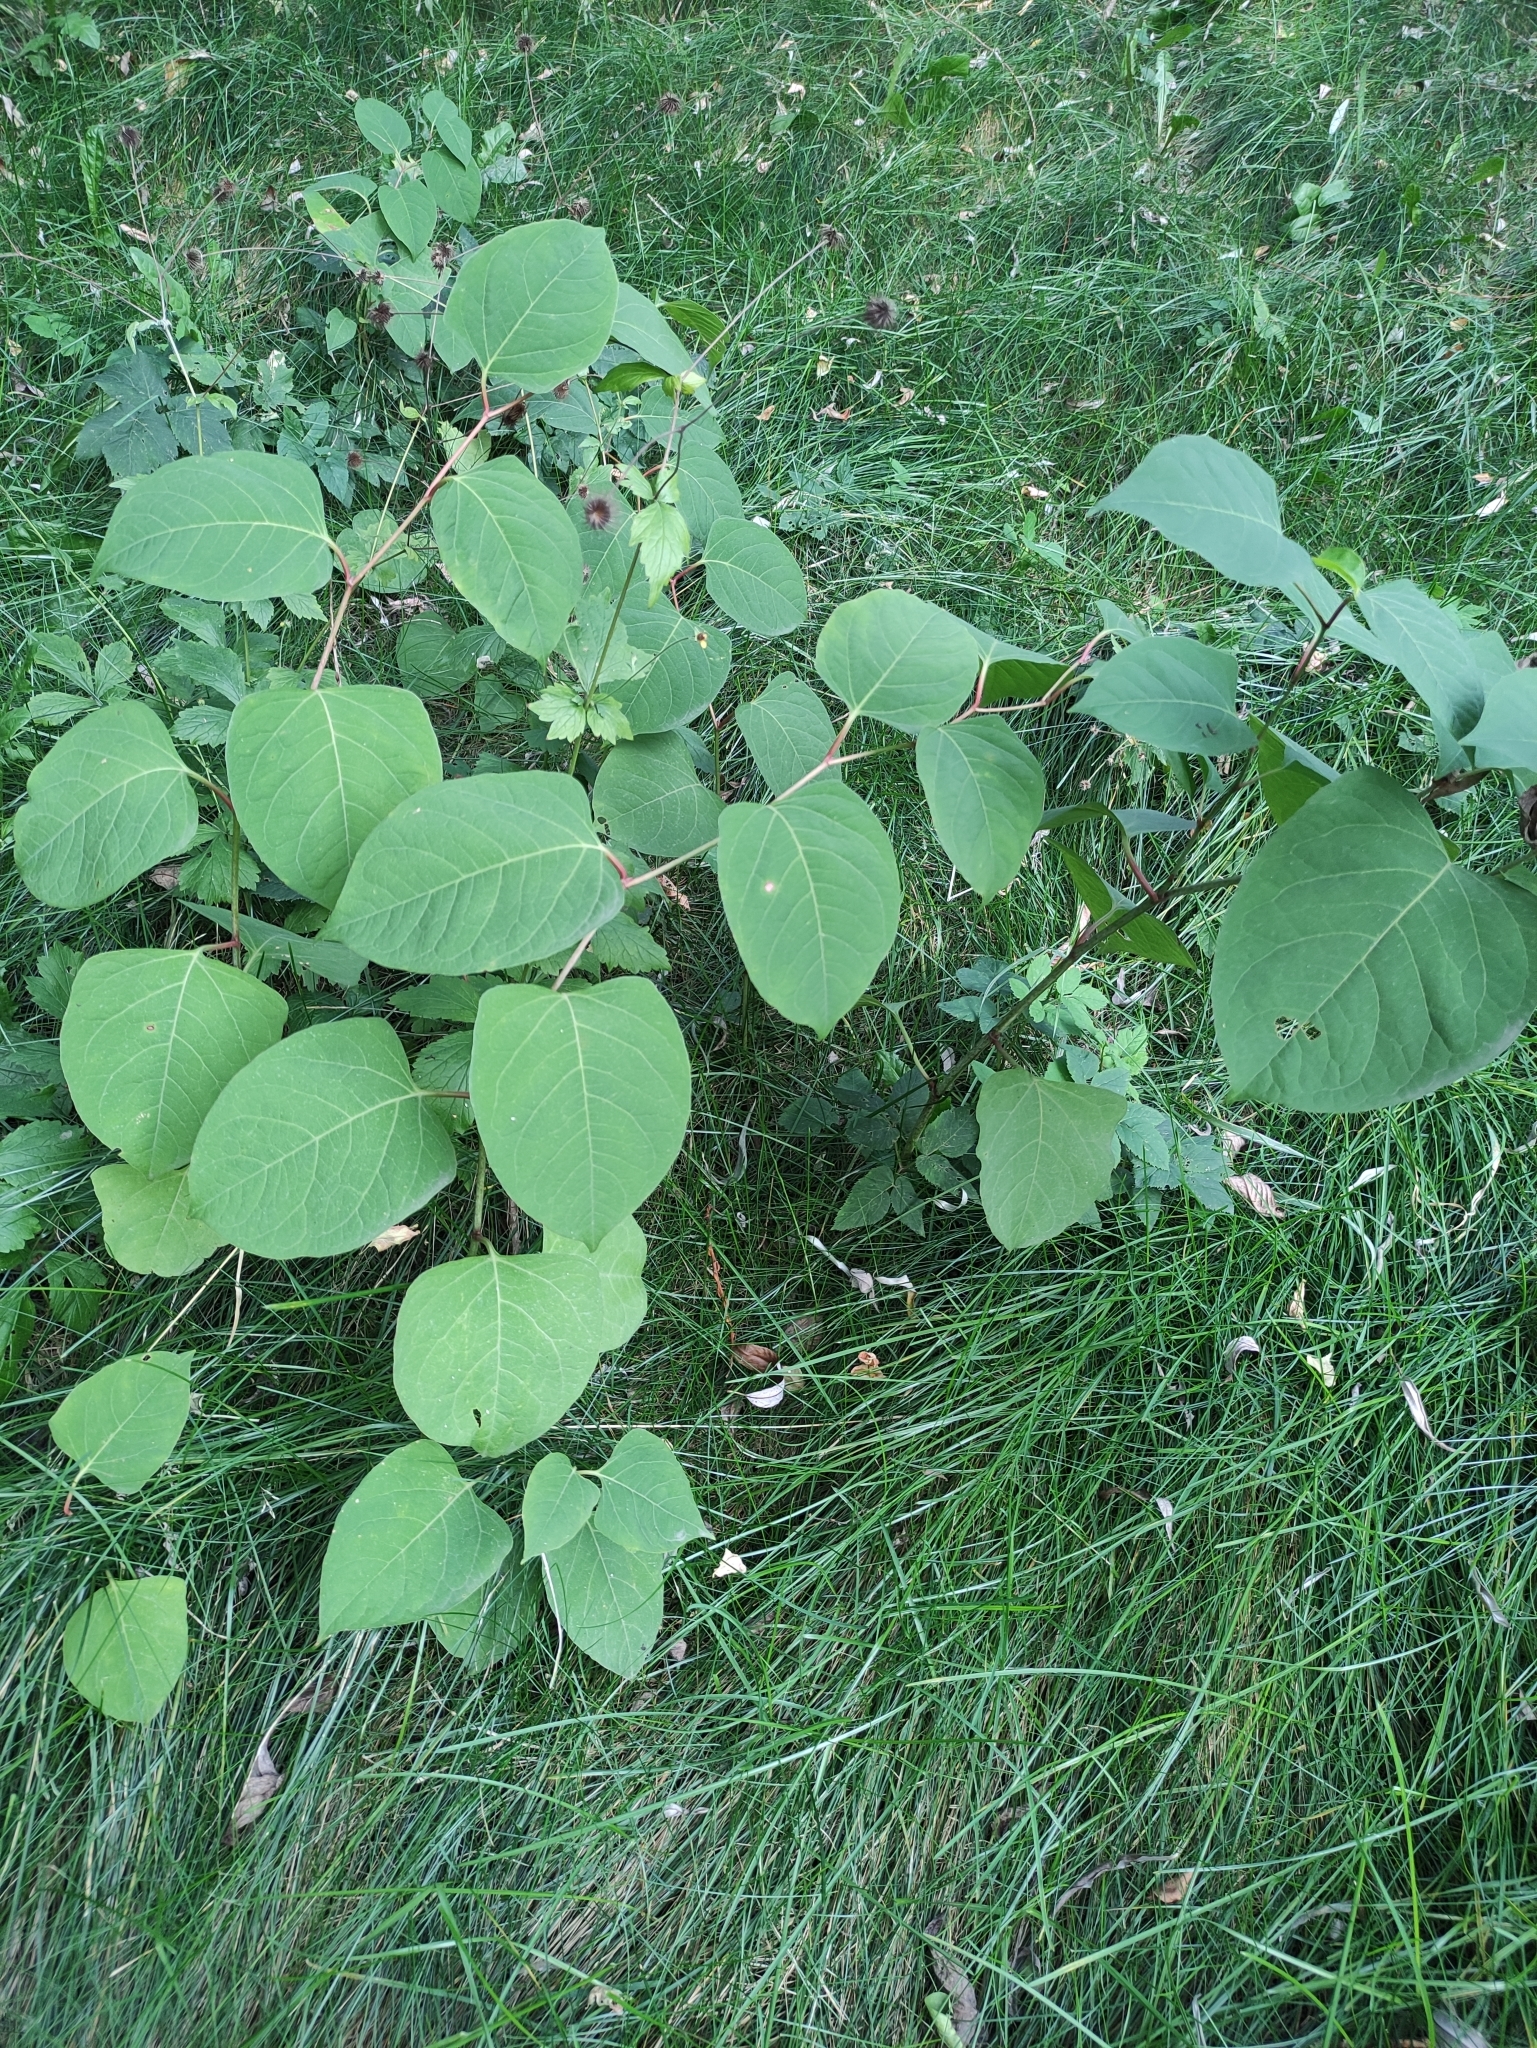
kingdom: Plantae
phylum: Tracheophyta
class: Magnoliopsida
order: Caryophyllales
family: Polygonaceae
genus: Reynoutria
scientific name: Reynoutria bohemica
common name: Bohemian knotweed
